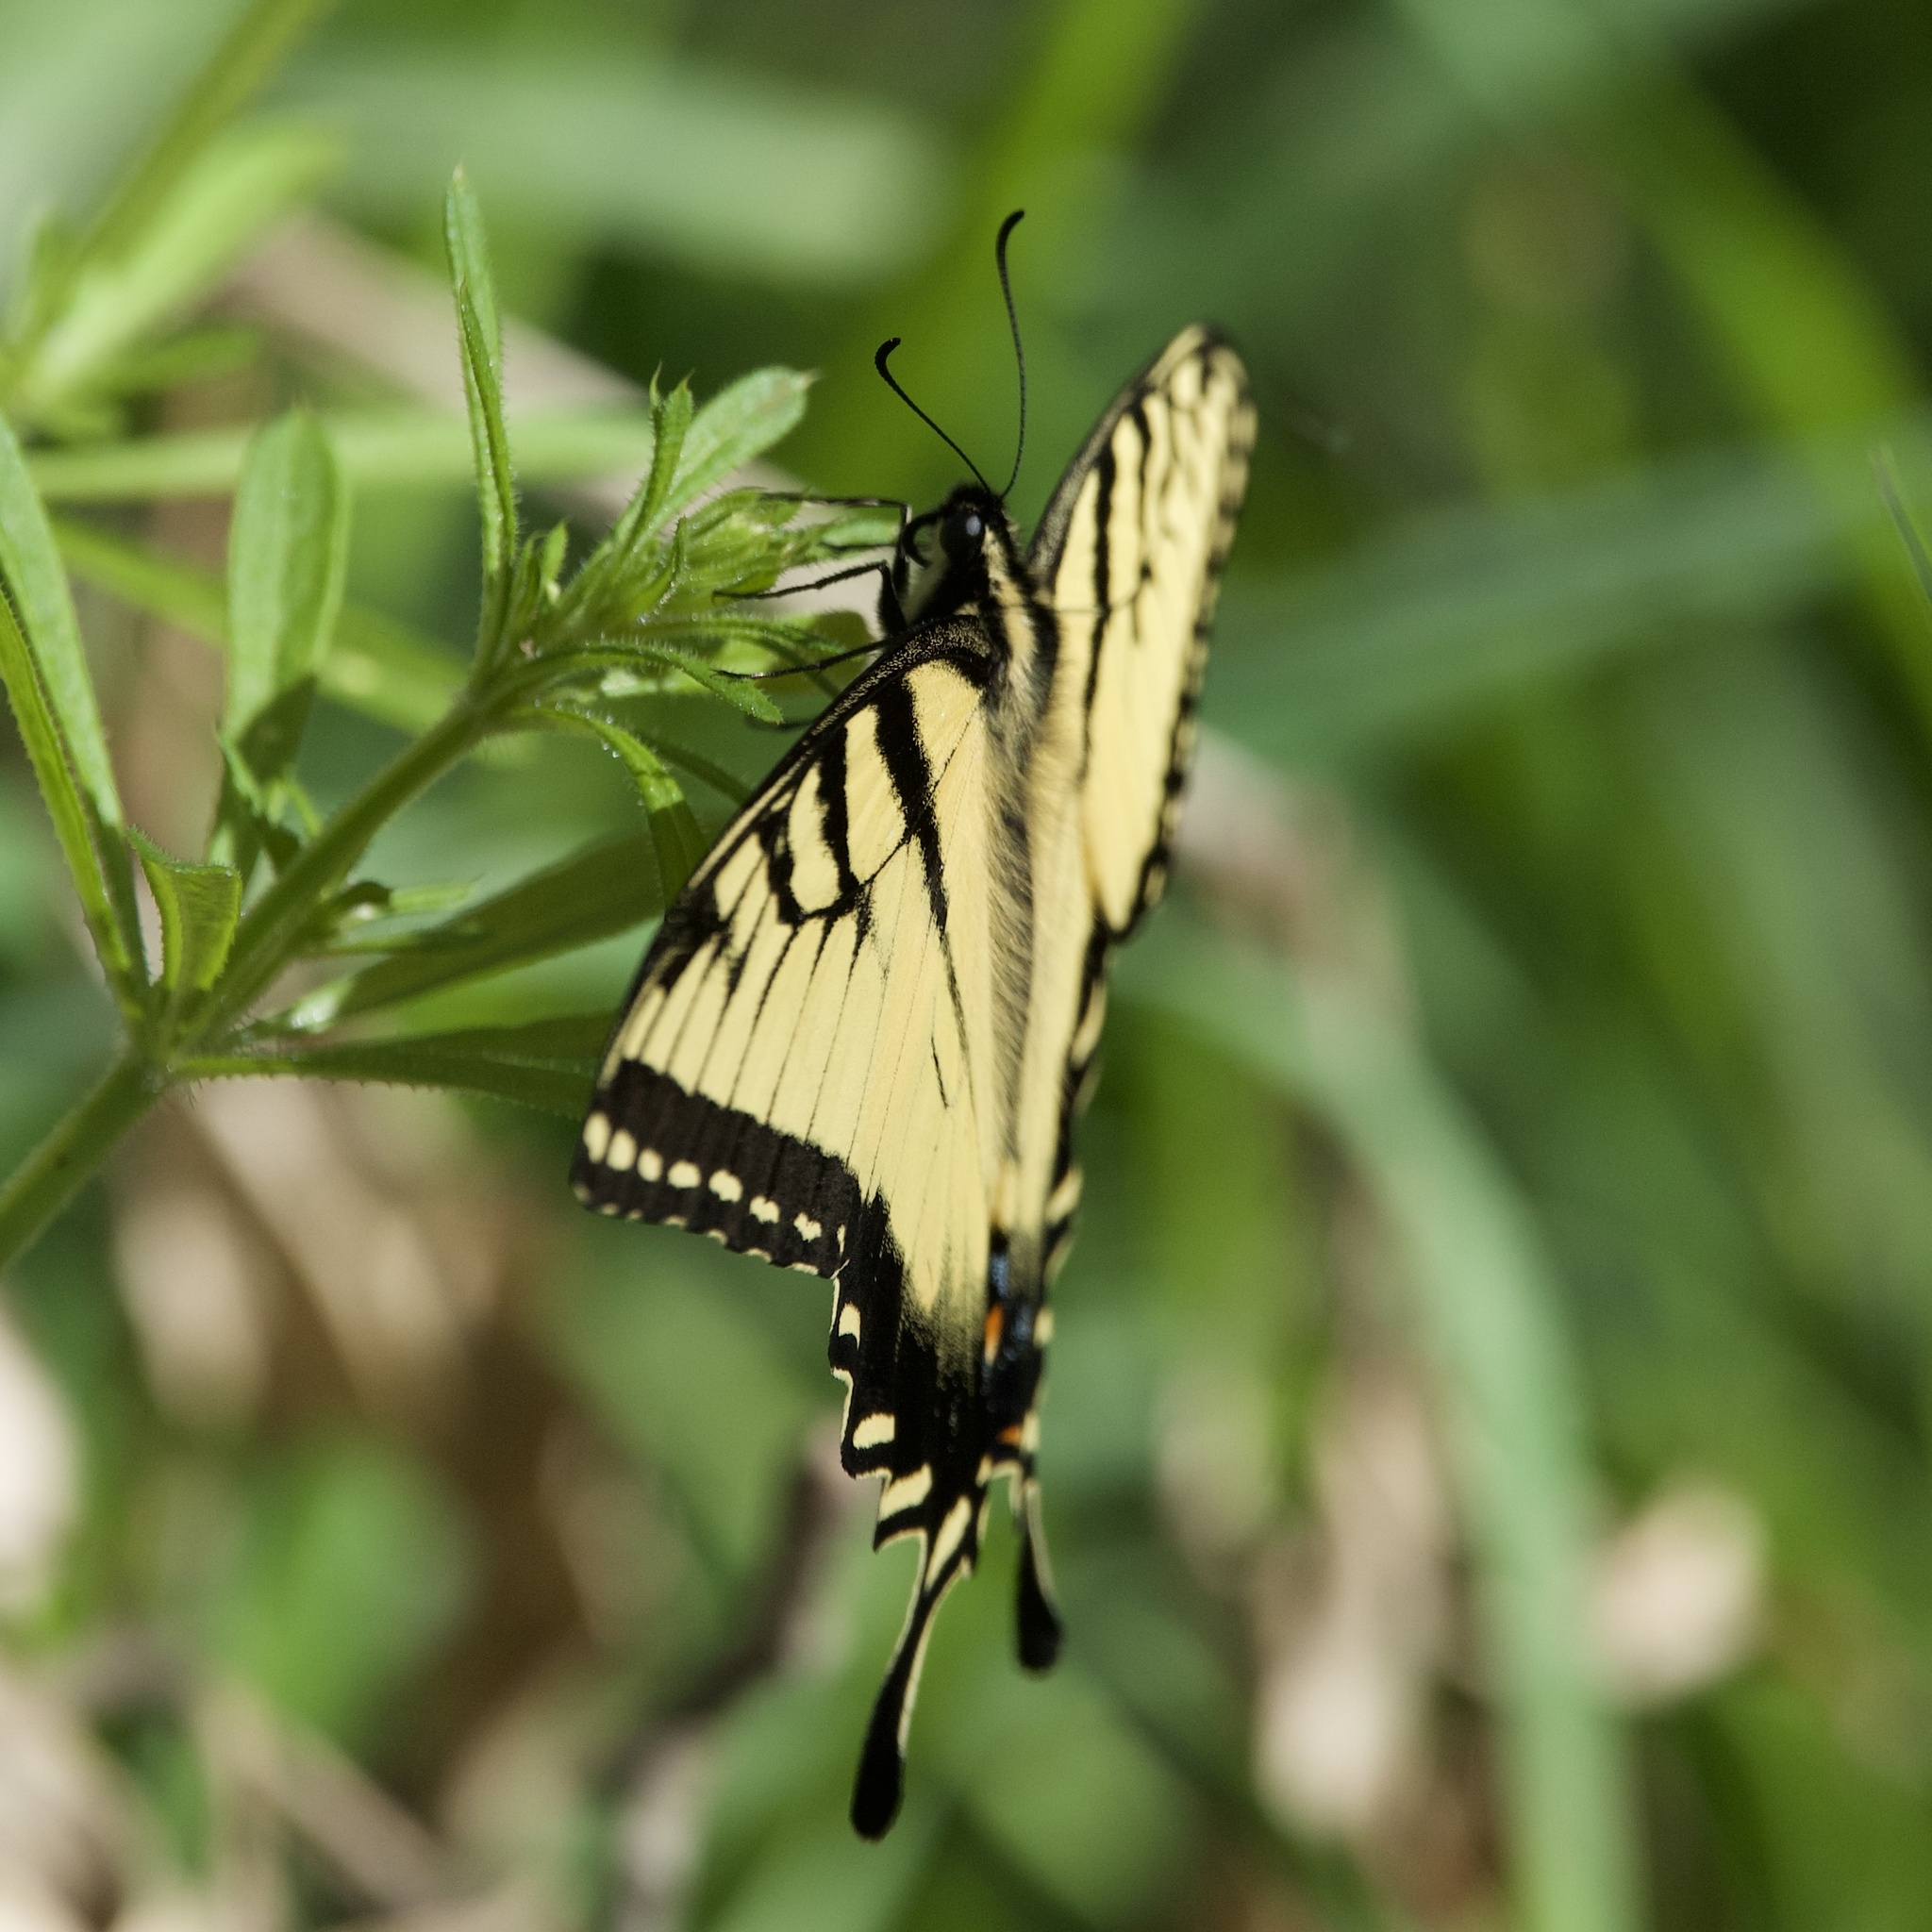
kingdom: Animalia
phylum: Arthropoda
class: Insecta
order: Lepidoptera
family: Papilionidae
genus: Papilio
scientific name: Papilio glaucus
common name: Tiger swallowtail
